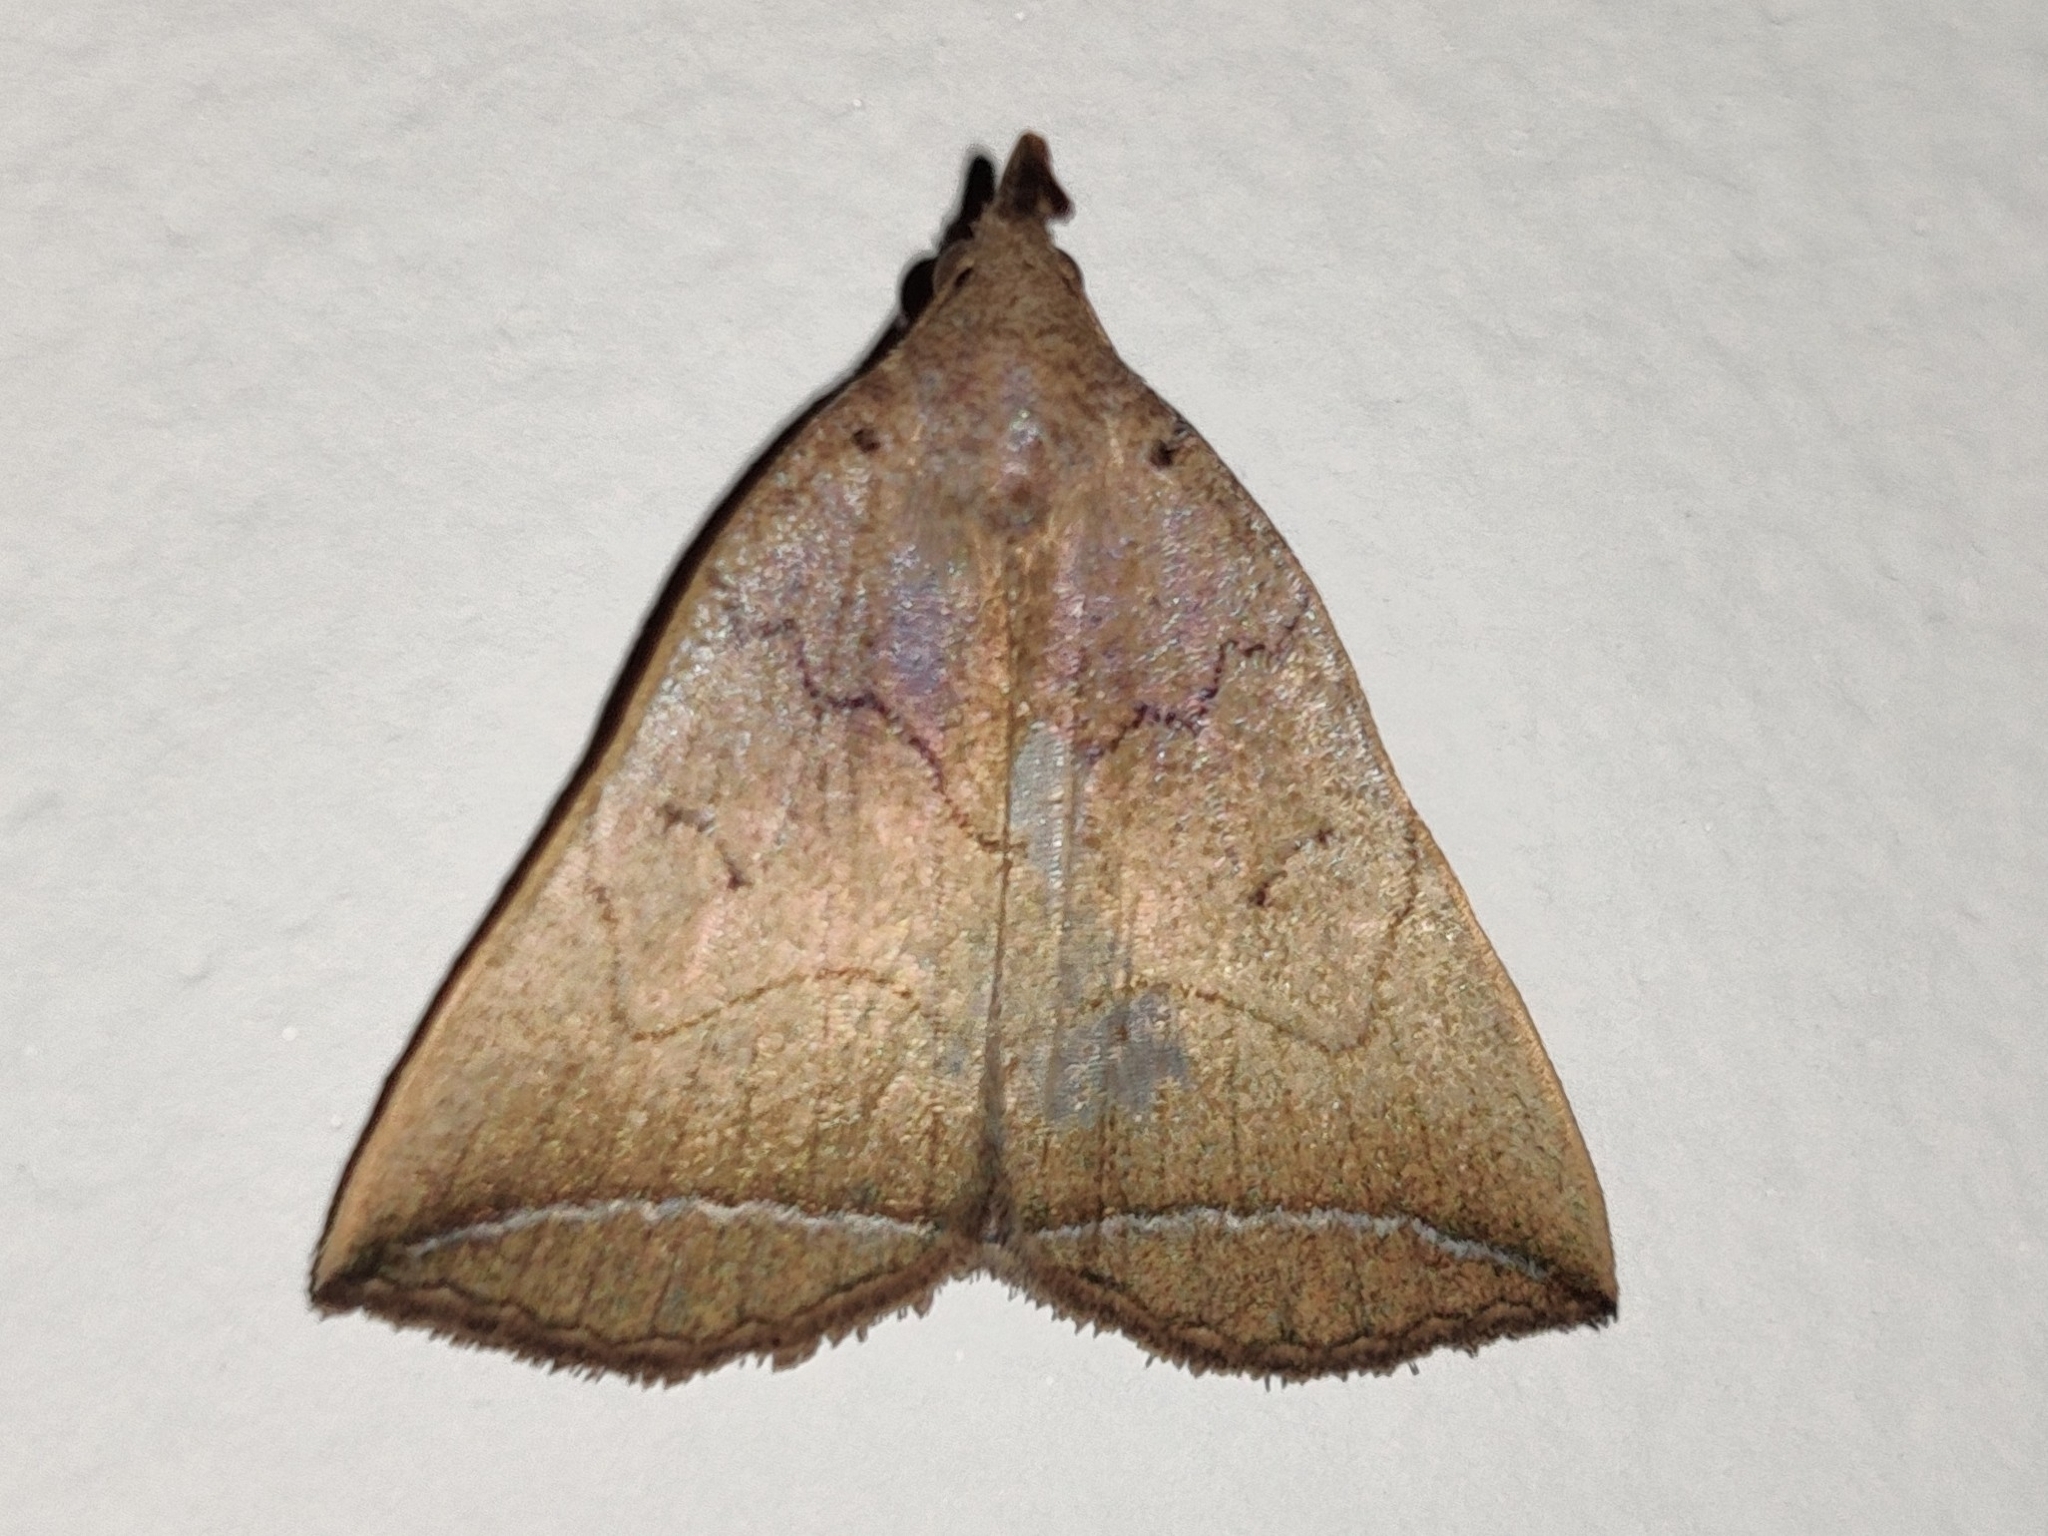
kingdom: Animalia
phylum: Arthropoda
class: Insecta
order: Lepidoptera
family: Erebidae
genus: Simplicia
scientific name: Simplicia armatalis
